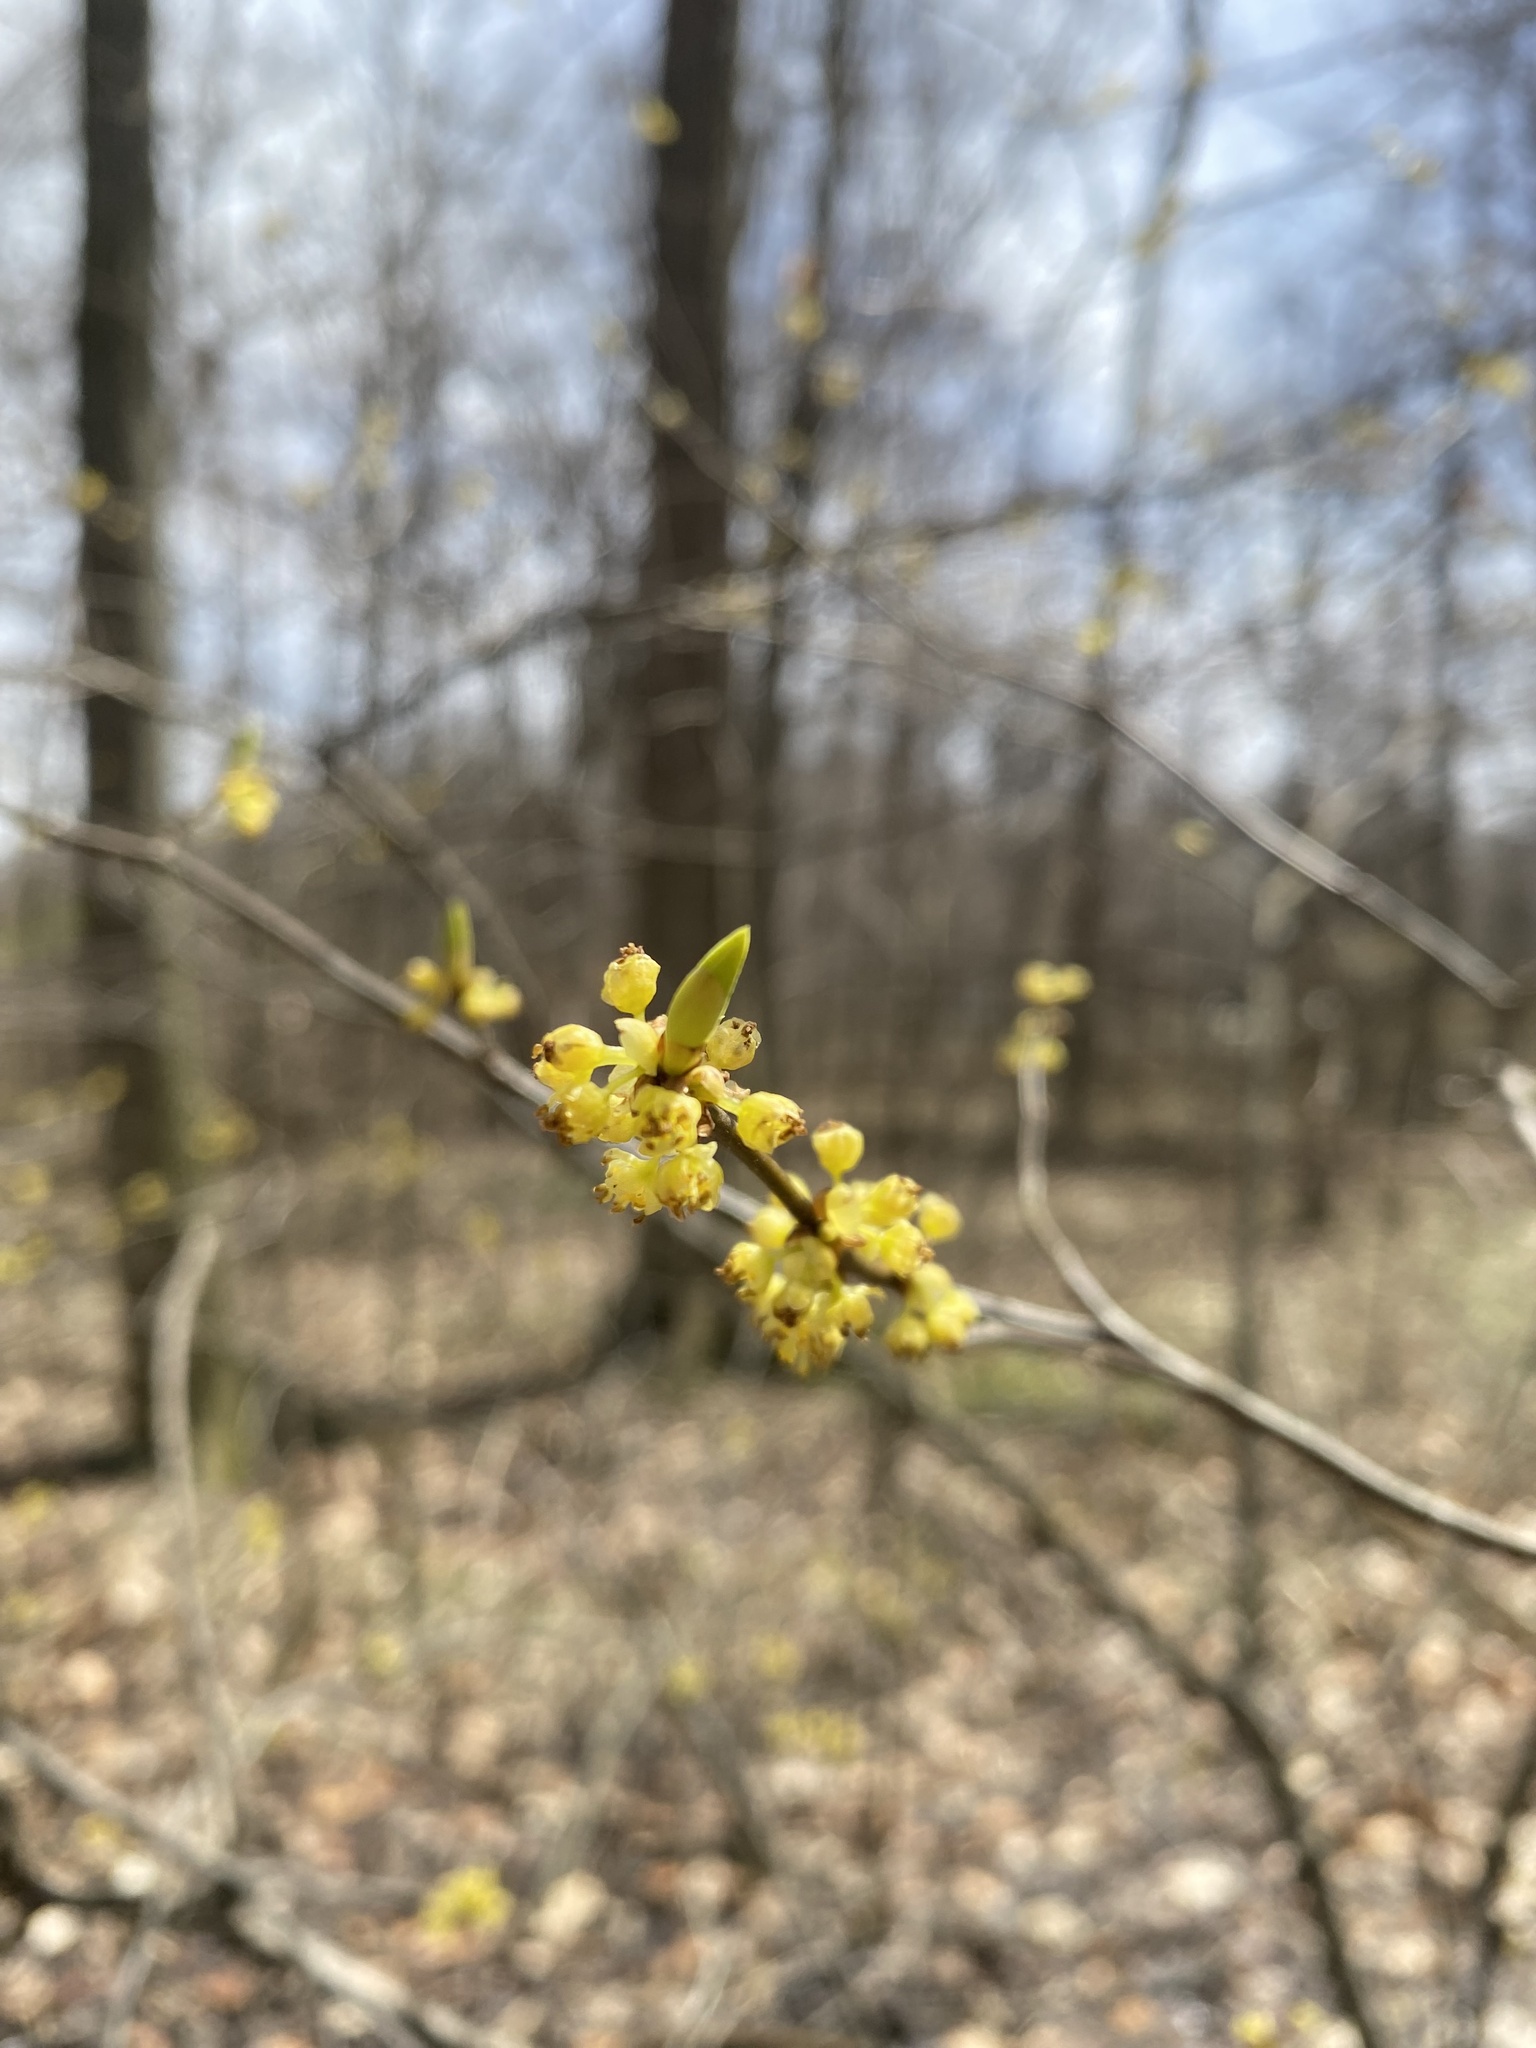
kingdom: Plantae
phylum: Tracheophyta
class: Magnoliopsida
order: Laurales
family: Lauraceae
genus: Lindera
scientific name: Lindera benzoin
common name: Spicebush
